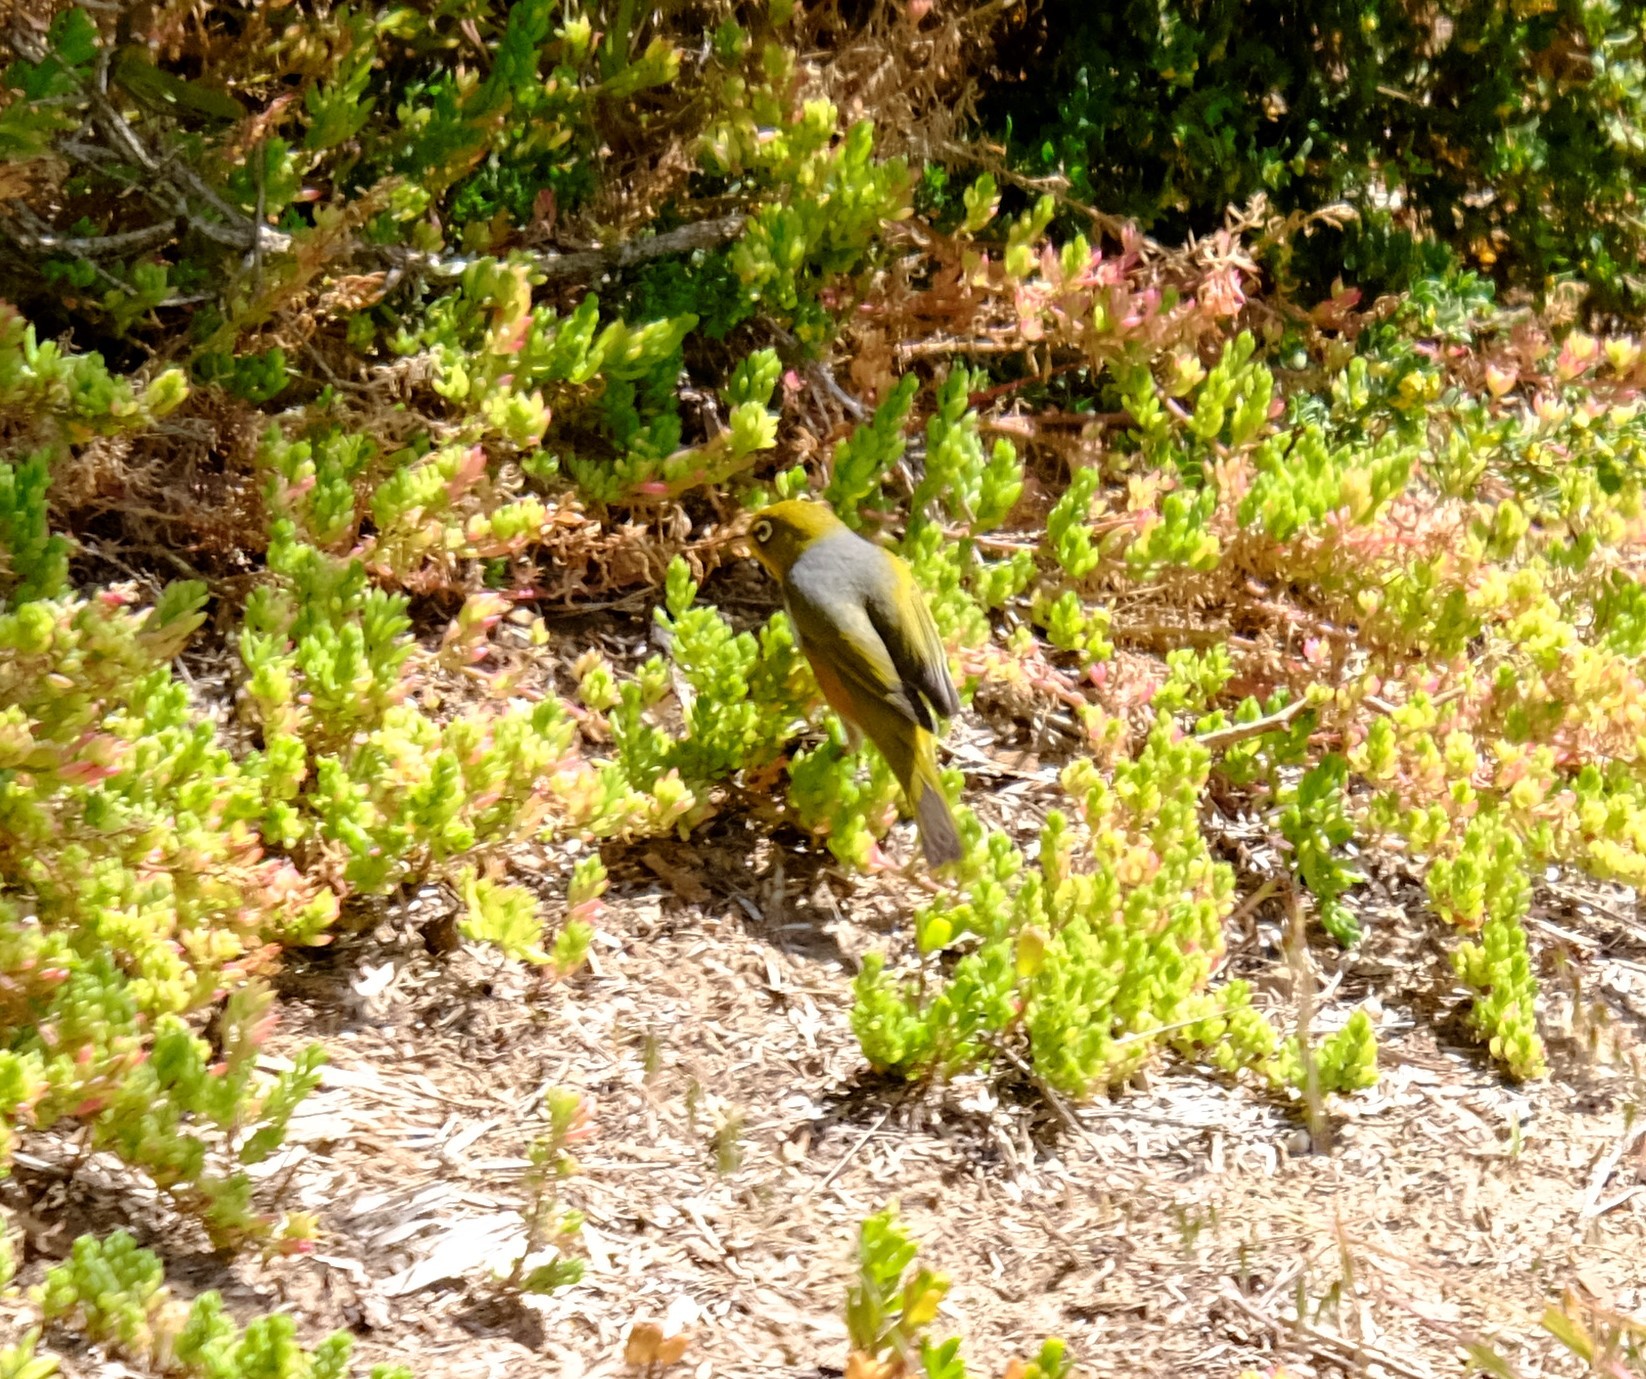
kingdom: Animalia
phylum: Chordata
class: Aves
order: Passeriformes
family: Zosteropidae
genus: Zosterops
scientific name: Zosterops lateralis
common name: Silvereye
